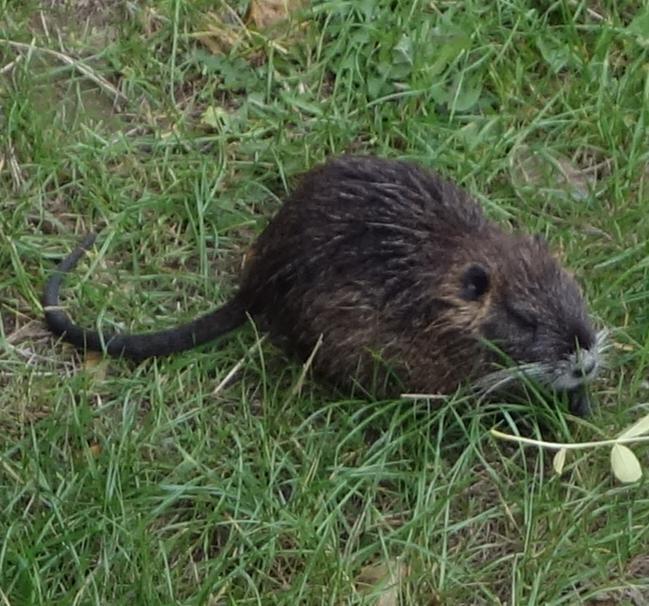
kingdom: Animalia
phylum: Chordata
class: Mammalia
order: Rodentia
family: Myocastoridae
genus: Myocastor
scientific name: Myocastor coypus
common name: Coypu
